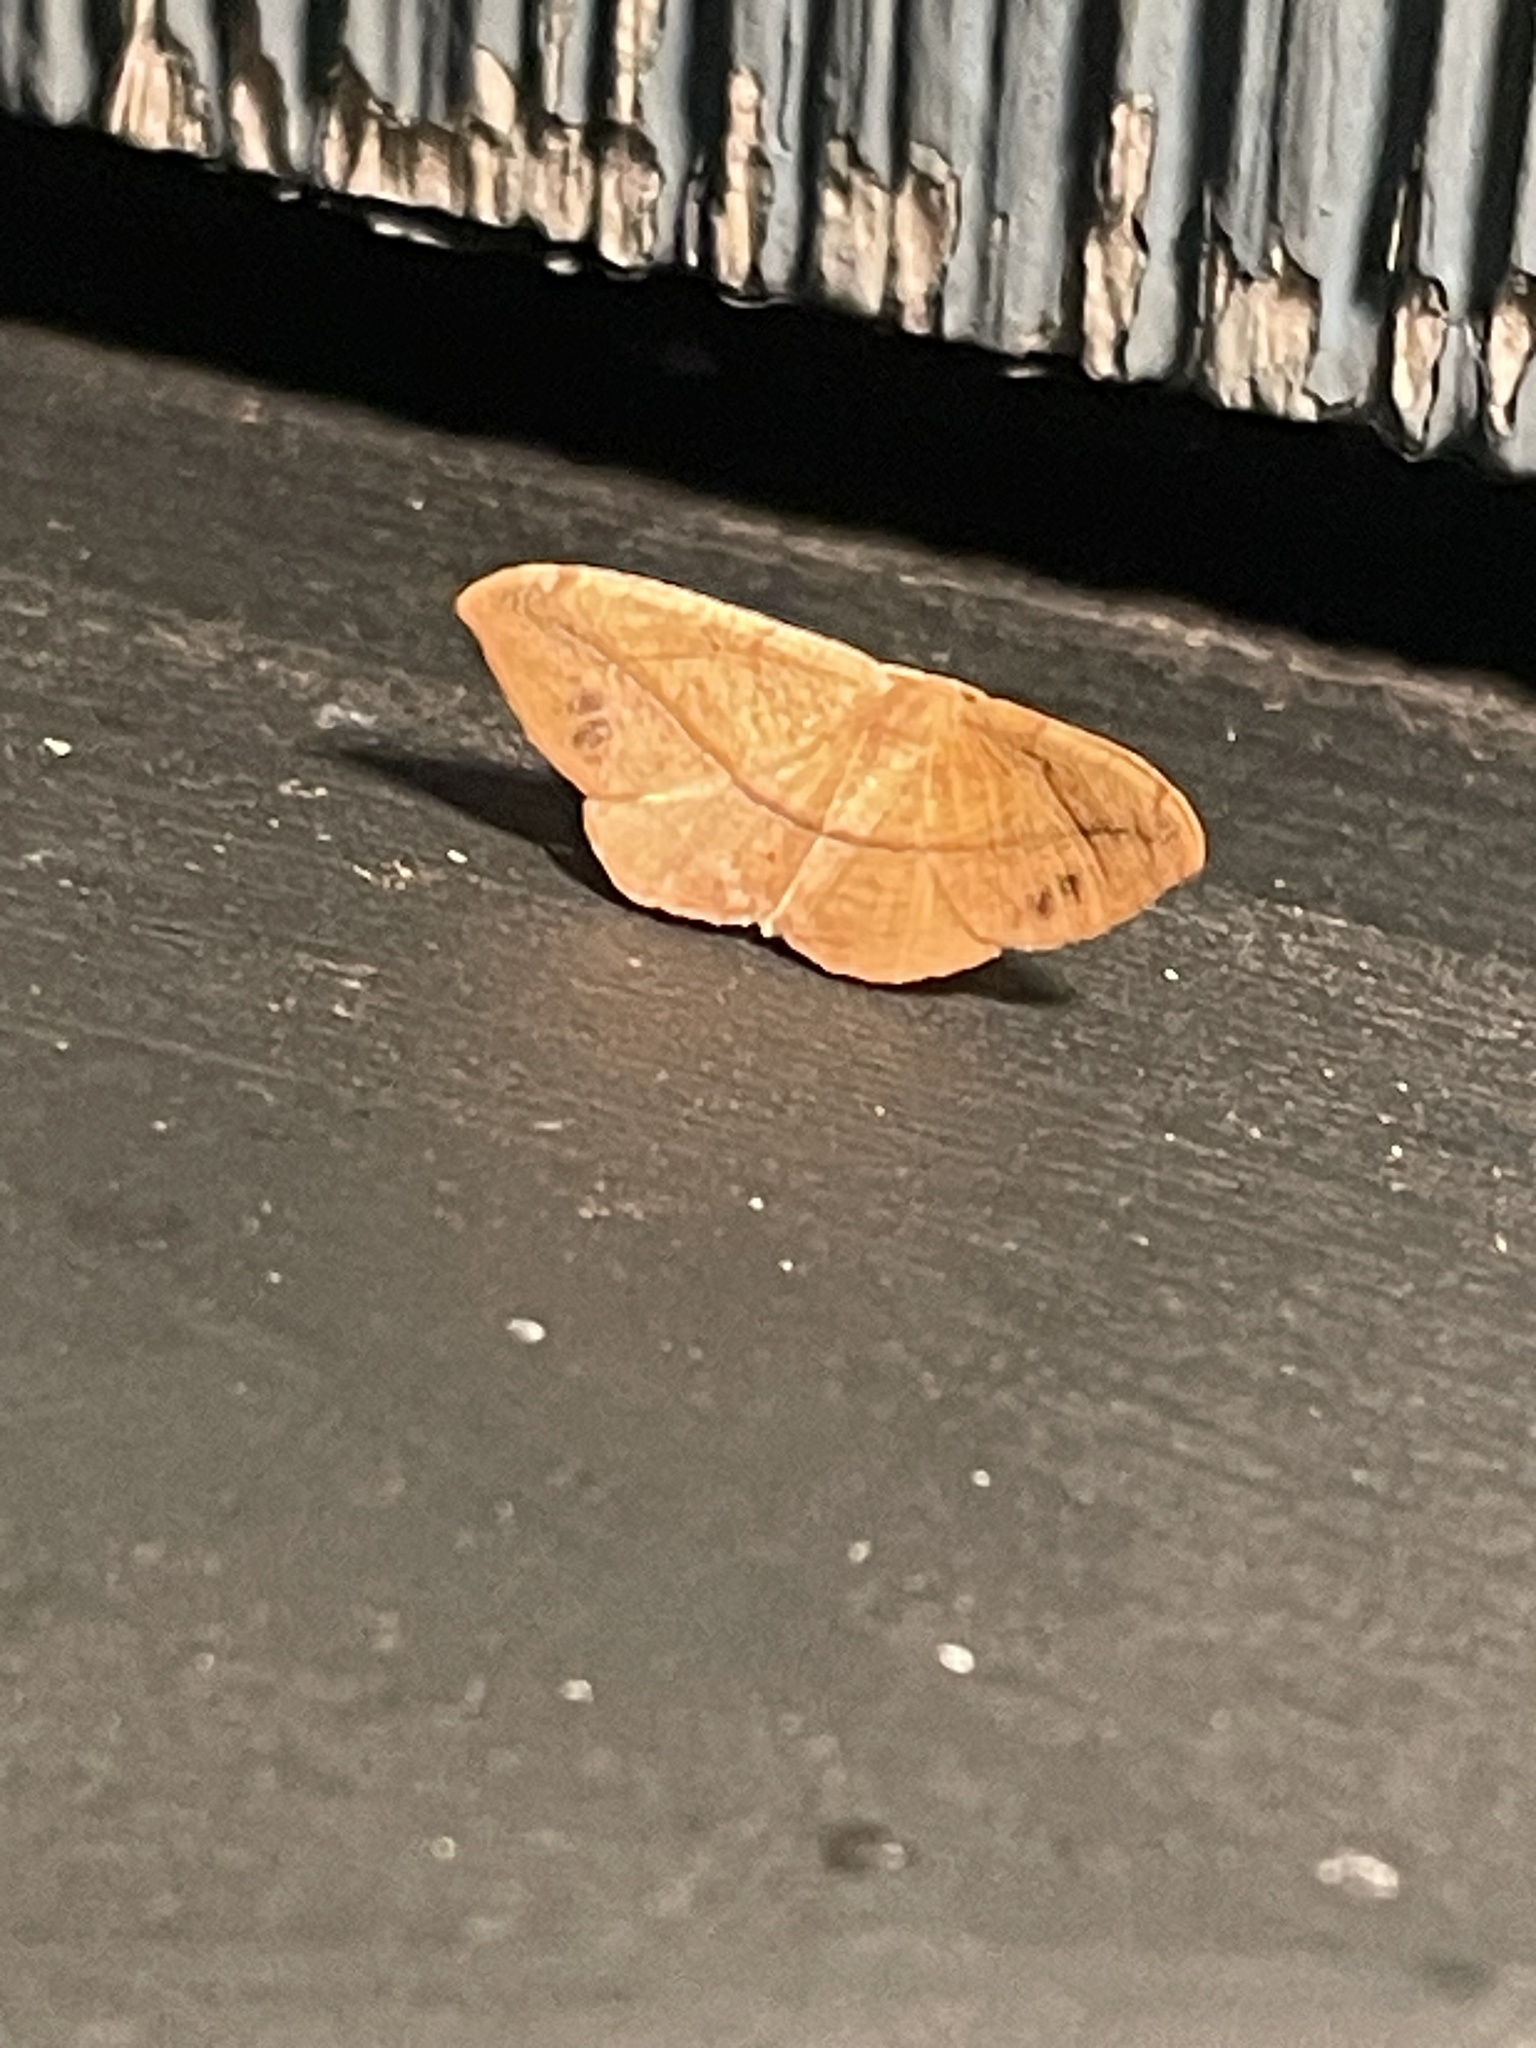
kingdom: Animalia
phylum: Arthropoda
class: Insecta
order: Lepidoptera
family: Geometridae
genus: Patalene
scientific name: Patalene olyzonaria
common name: Juniper geometer moth
